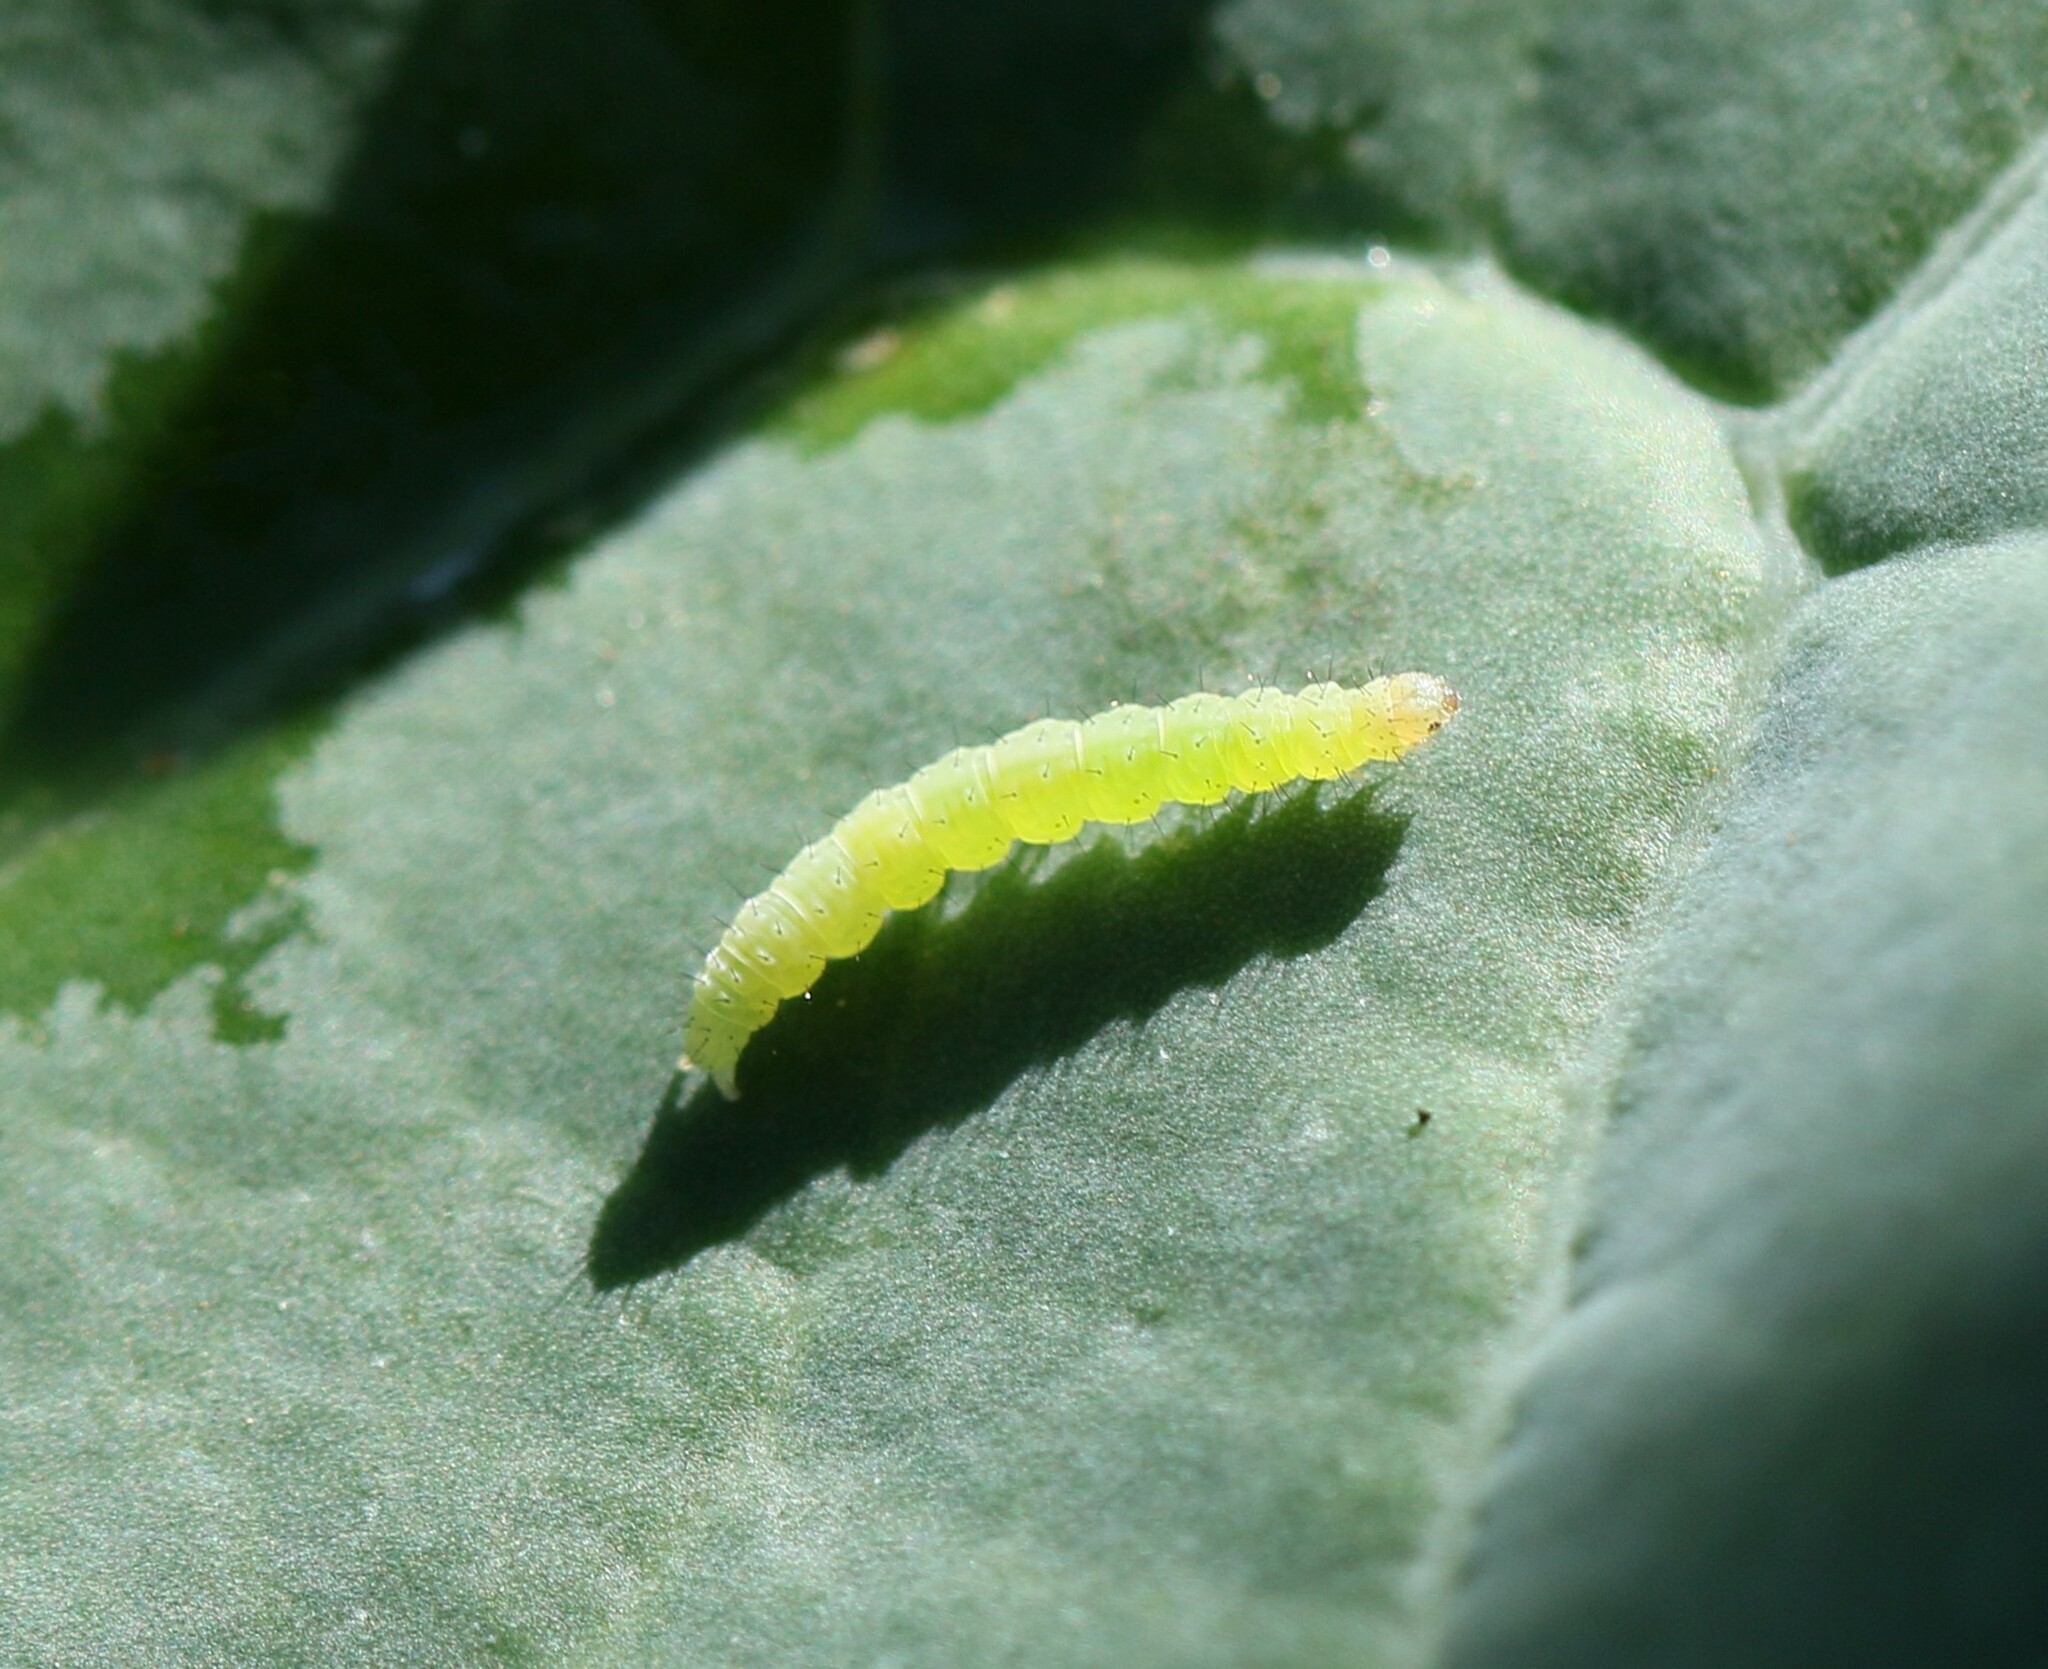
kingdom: Animalia
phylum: Arthropoda
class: Insecta
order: Lepidoptera
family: Pieridae
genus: Pieris
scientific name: Pieris rapae
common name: Small white
